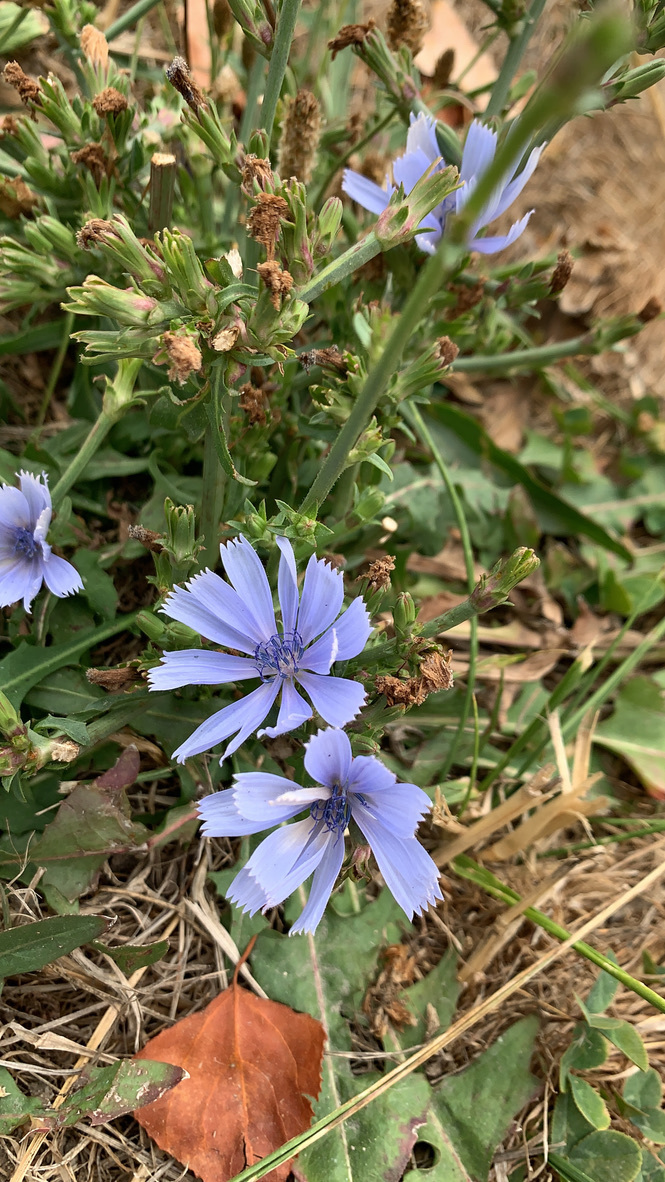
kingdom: Plantae
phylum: Tracheophyta
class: Magnoliopsida
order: Asterales
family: Asteraceae
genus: Cichorium
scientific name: Cichorium intybus
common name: Chicory
